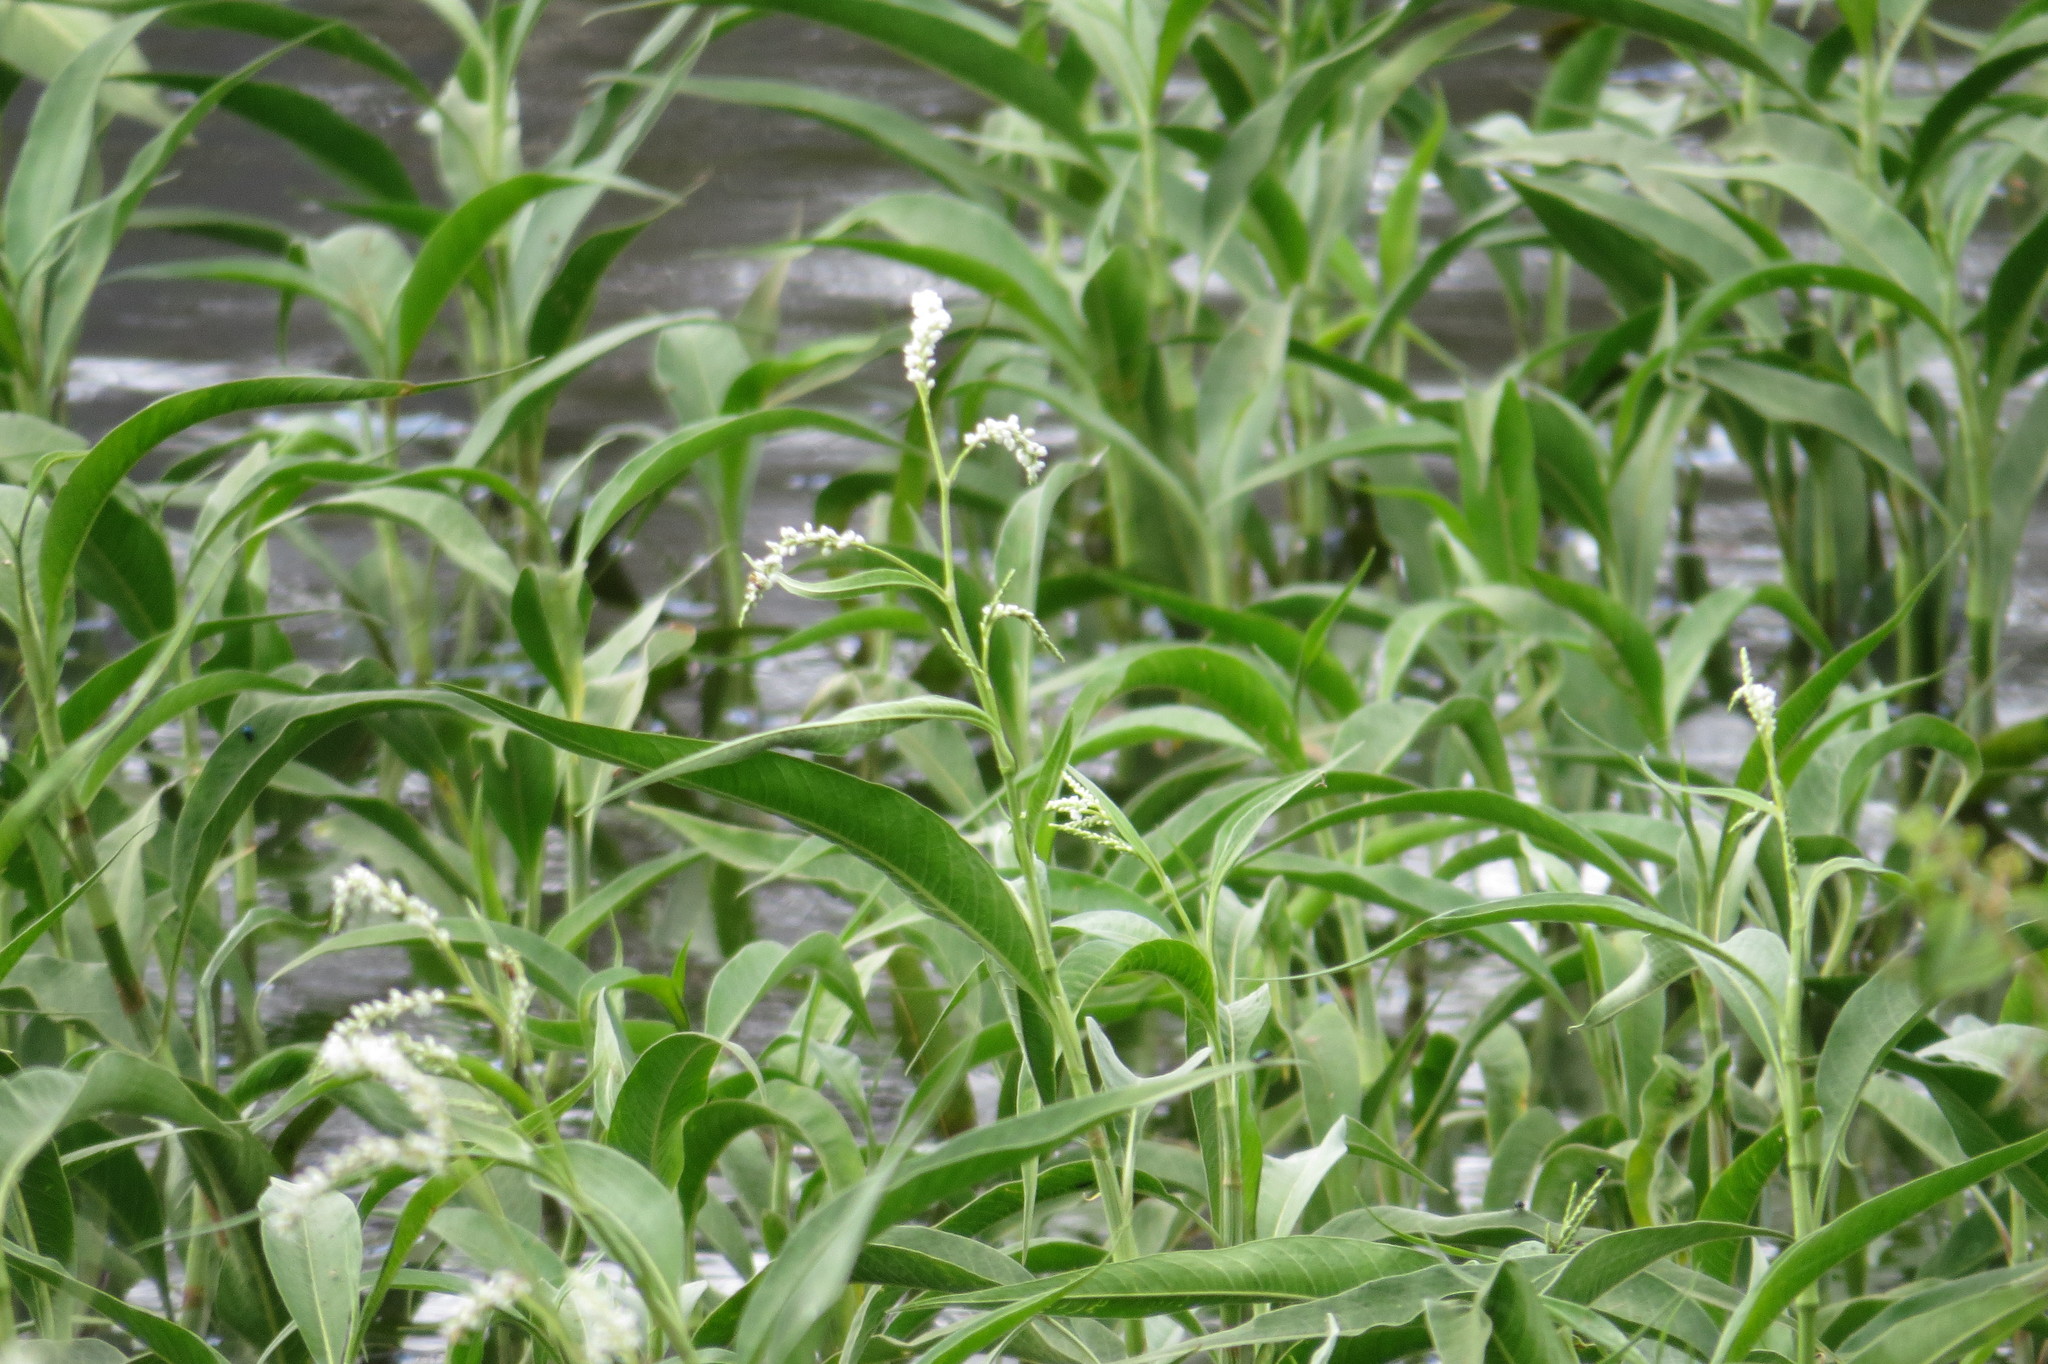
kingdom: Plantae
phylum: Tracheophyta
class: Magnoliopsida
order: Caryophyllales
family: Polygonaceae
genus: Persicaria
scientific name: Persicaria attenuata
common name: Hairy knotweed
